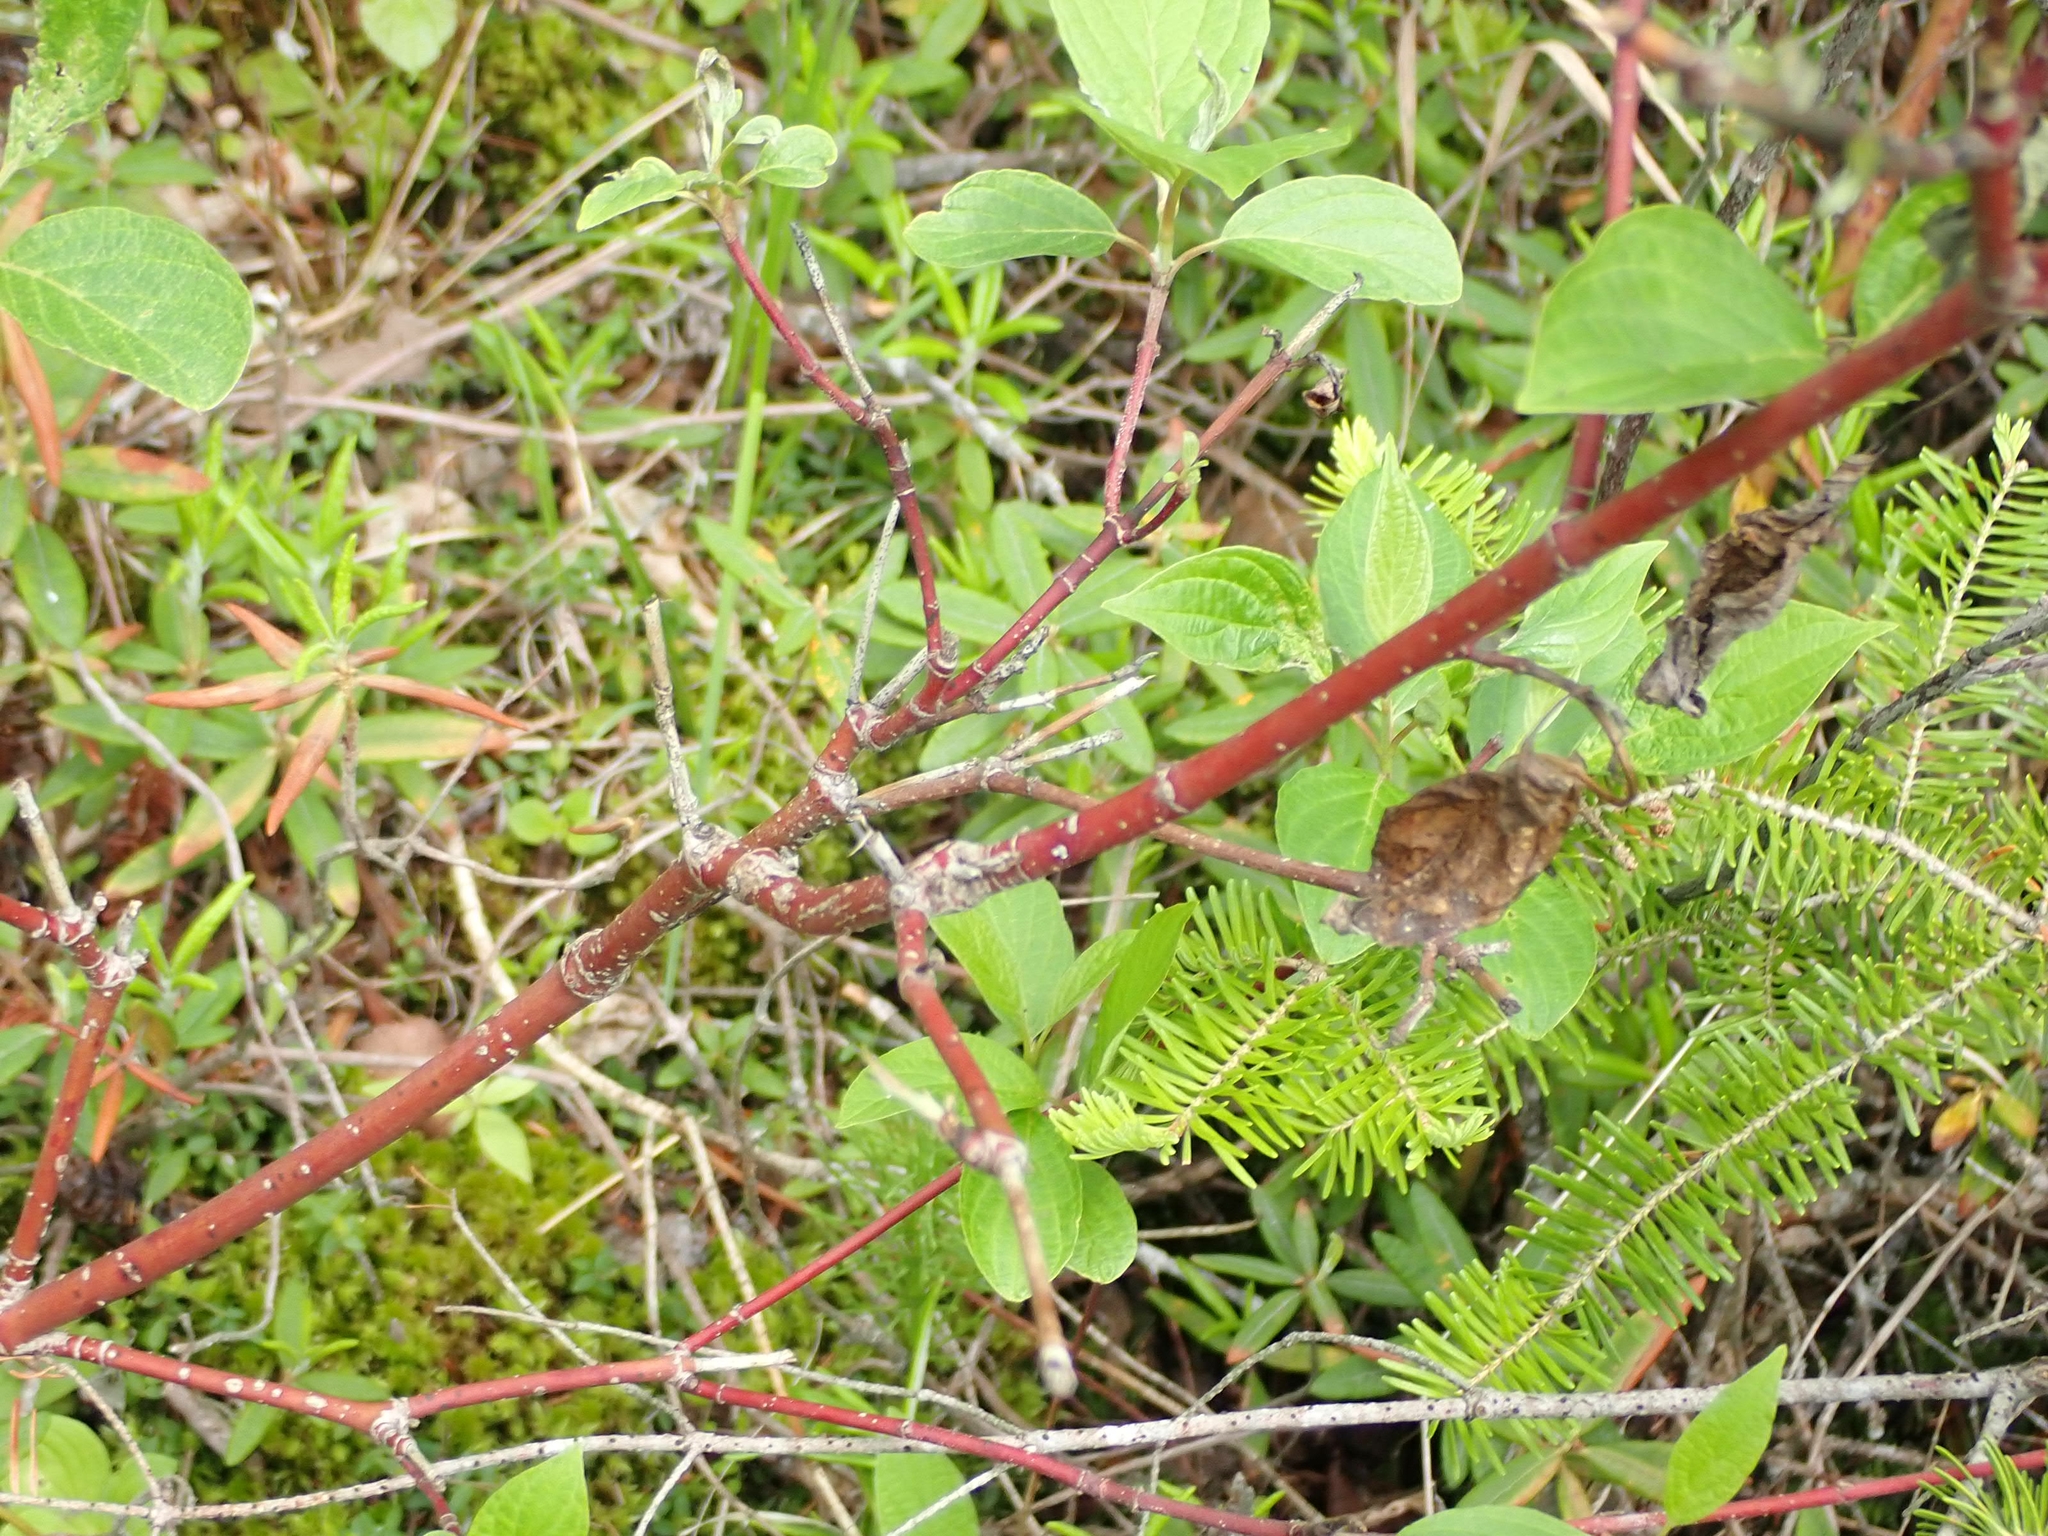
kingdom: Plantae
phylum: Tracheophyta
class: Magnoliopsida
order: Cornales
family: Cornaceae
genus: Cornus
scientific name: Cornus sericea
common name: Red-osier dogwood
